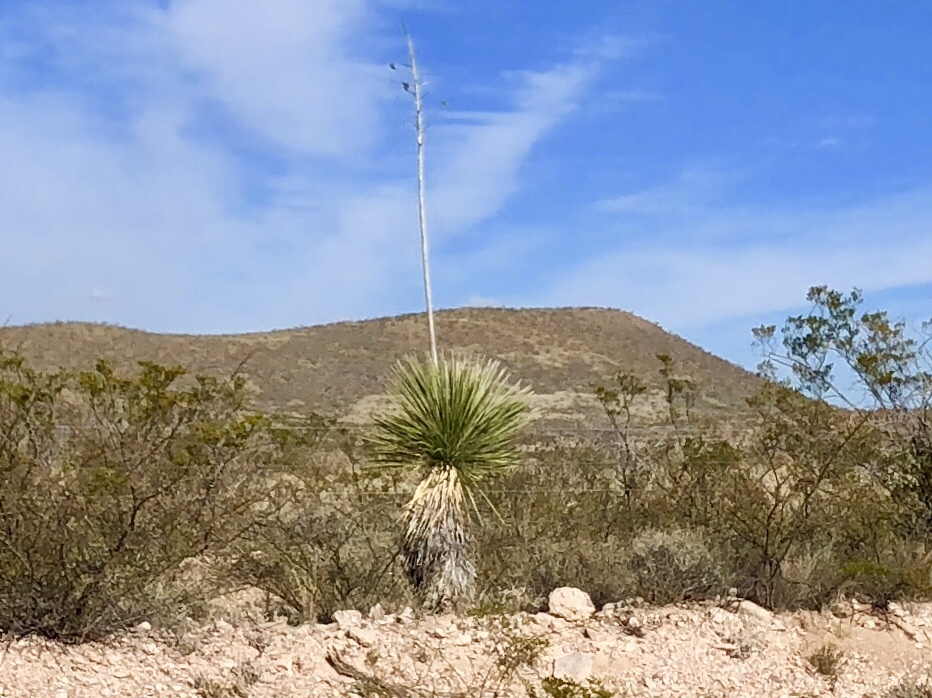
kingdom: Plantae
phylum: Tracheophyta
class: Liliopsida
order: Asparagales
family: Asparagaceae
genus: Yucca
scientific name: Yucca elata
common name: Palmella
